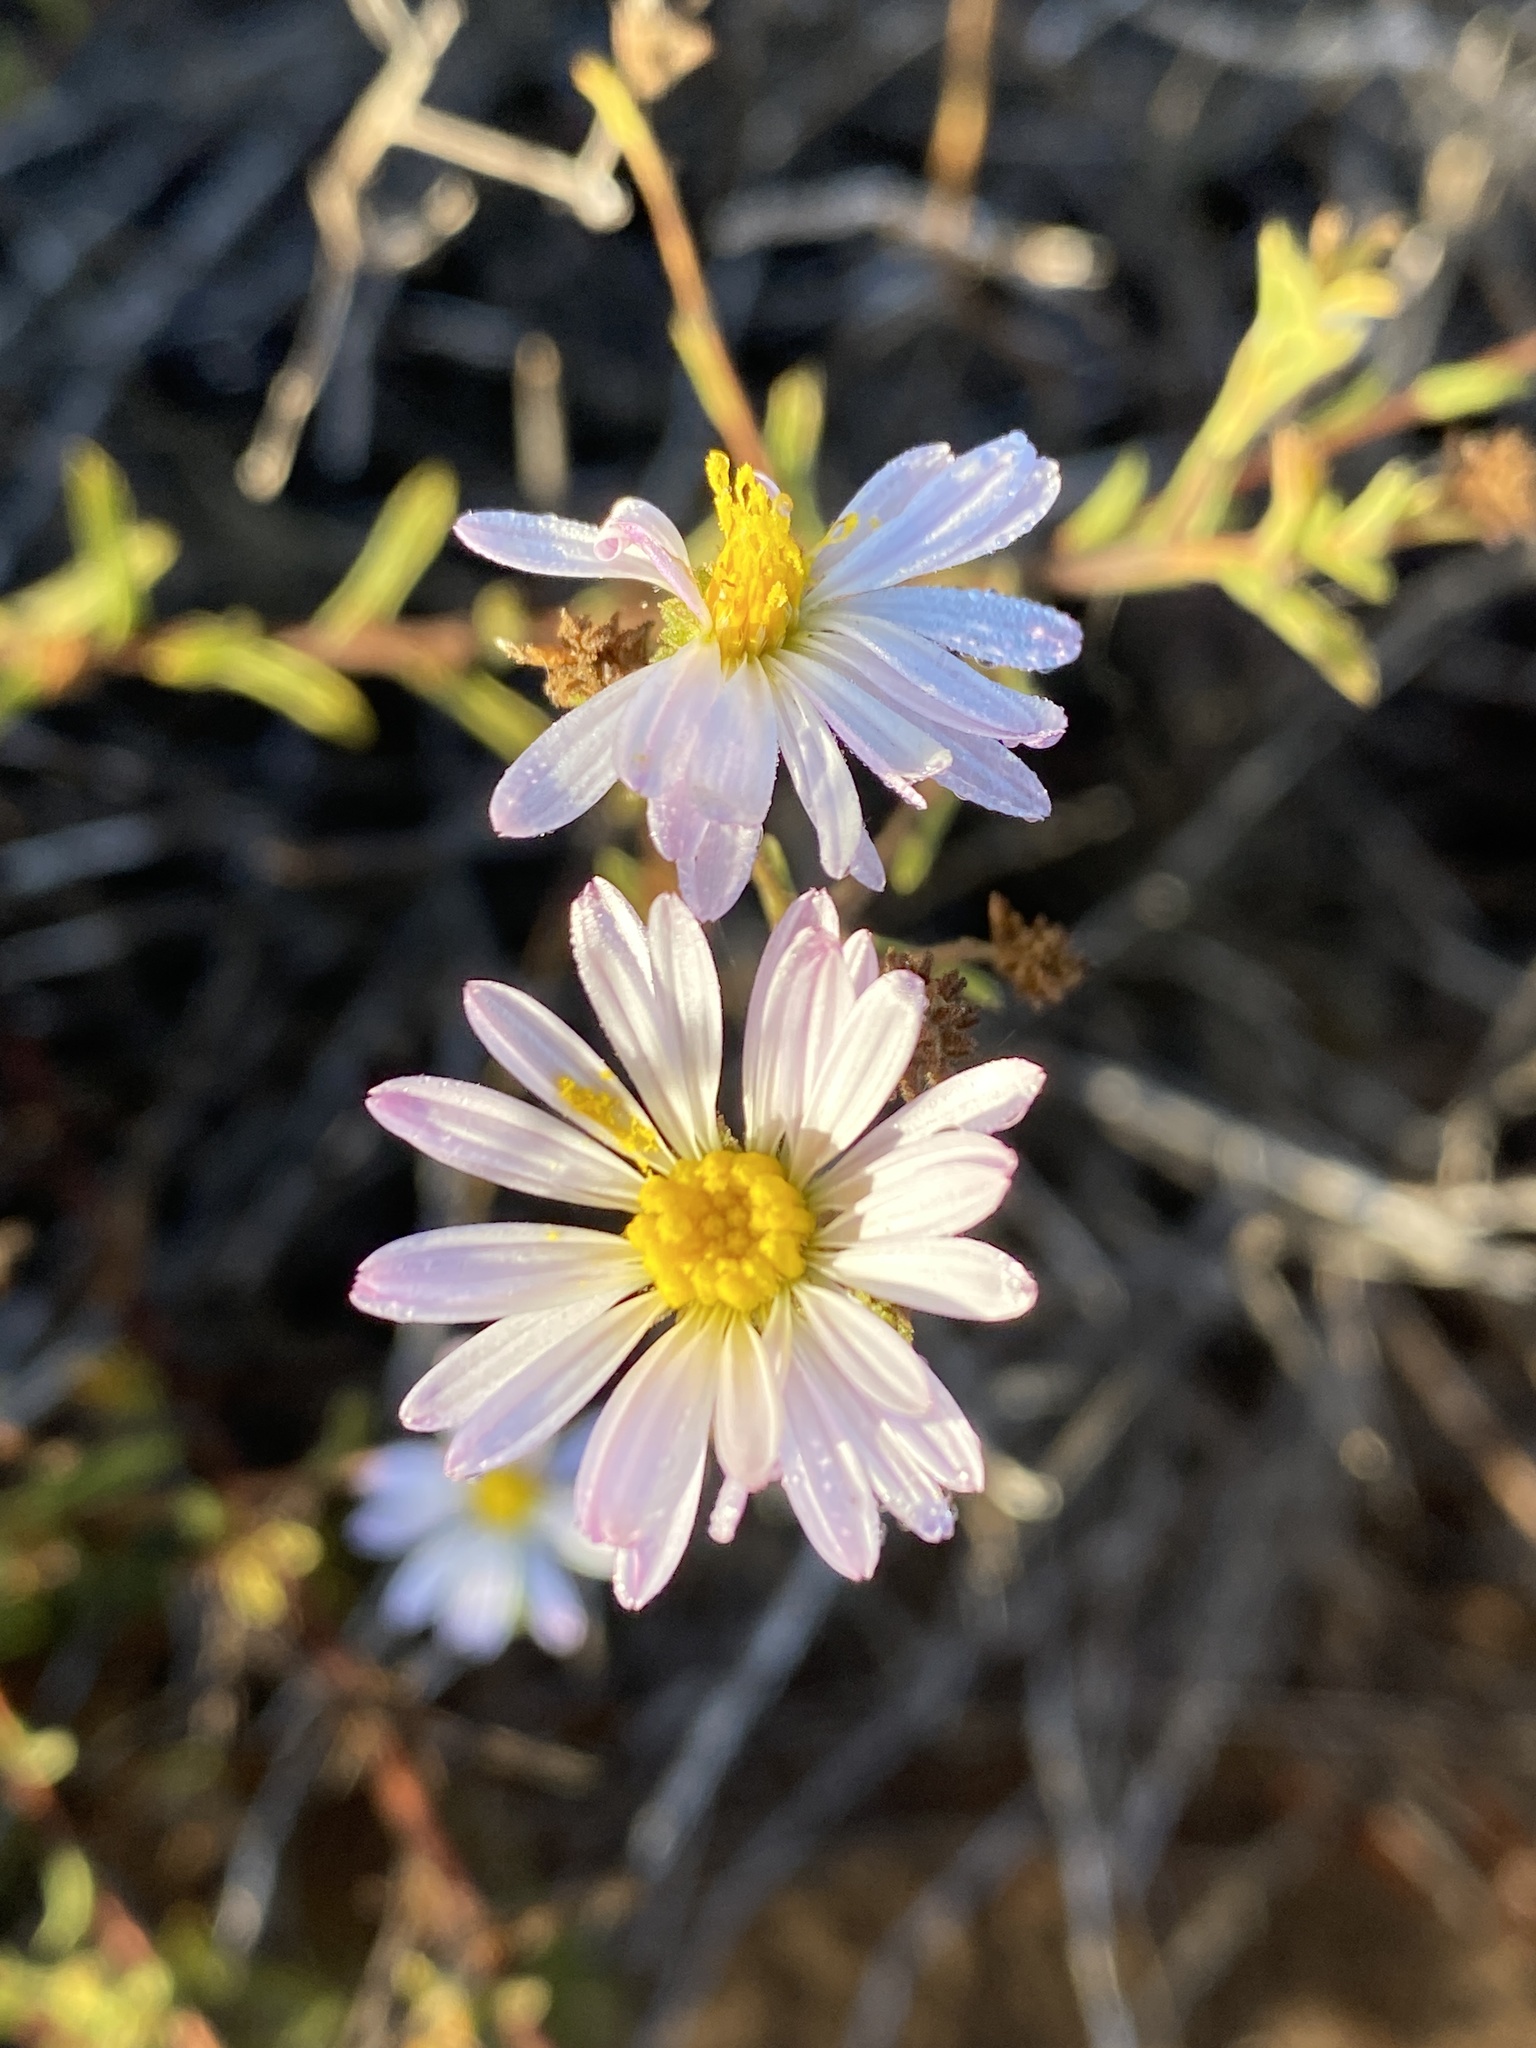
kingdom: Plantae
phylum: Tracheophyta
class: Magnoliopsida
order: Asterales
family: Asteraceae
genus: Corethrogyne
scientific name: Corethrogyne filaginifolia
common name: Sand-aster
